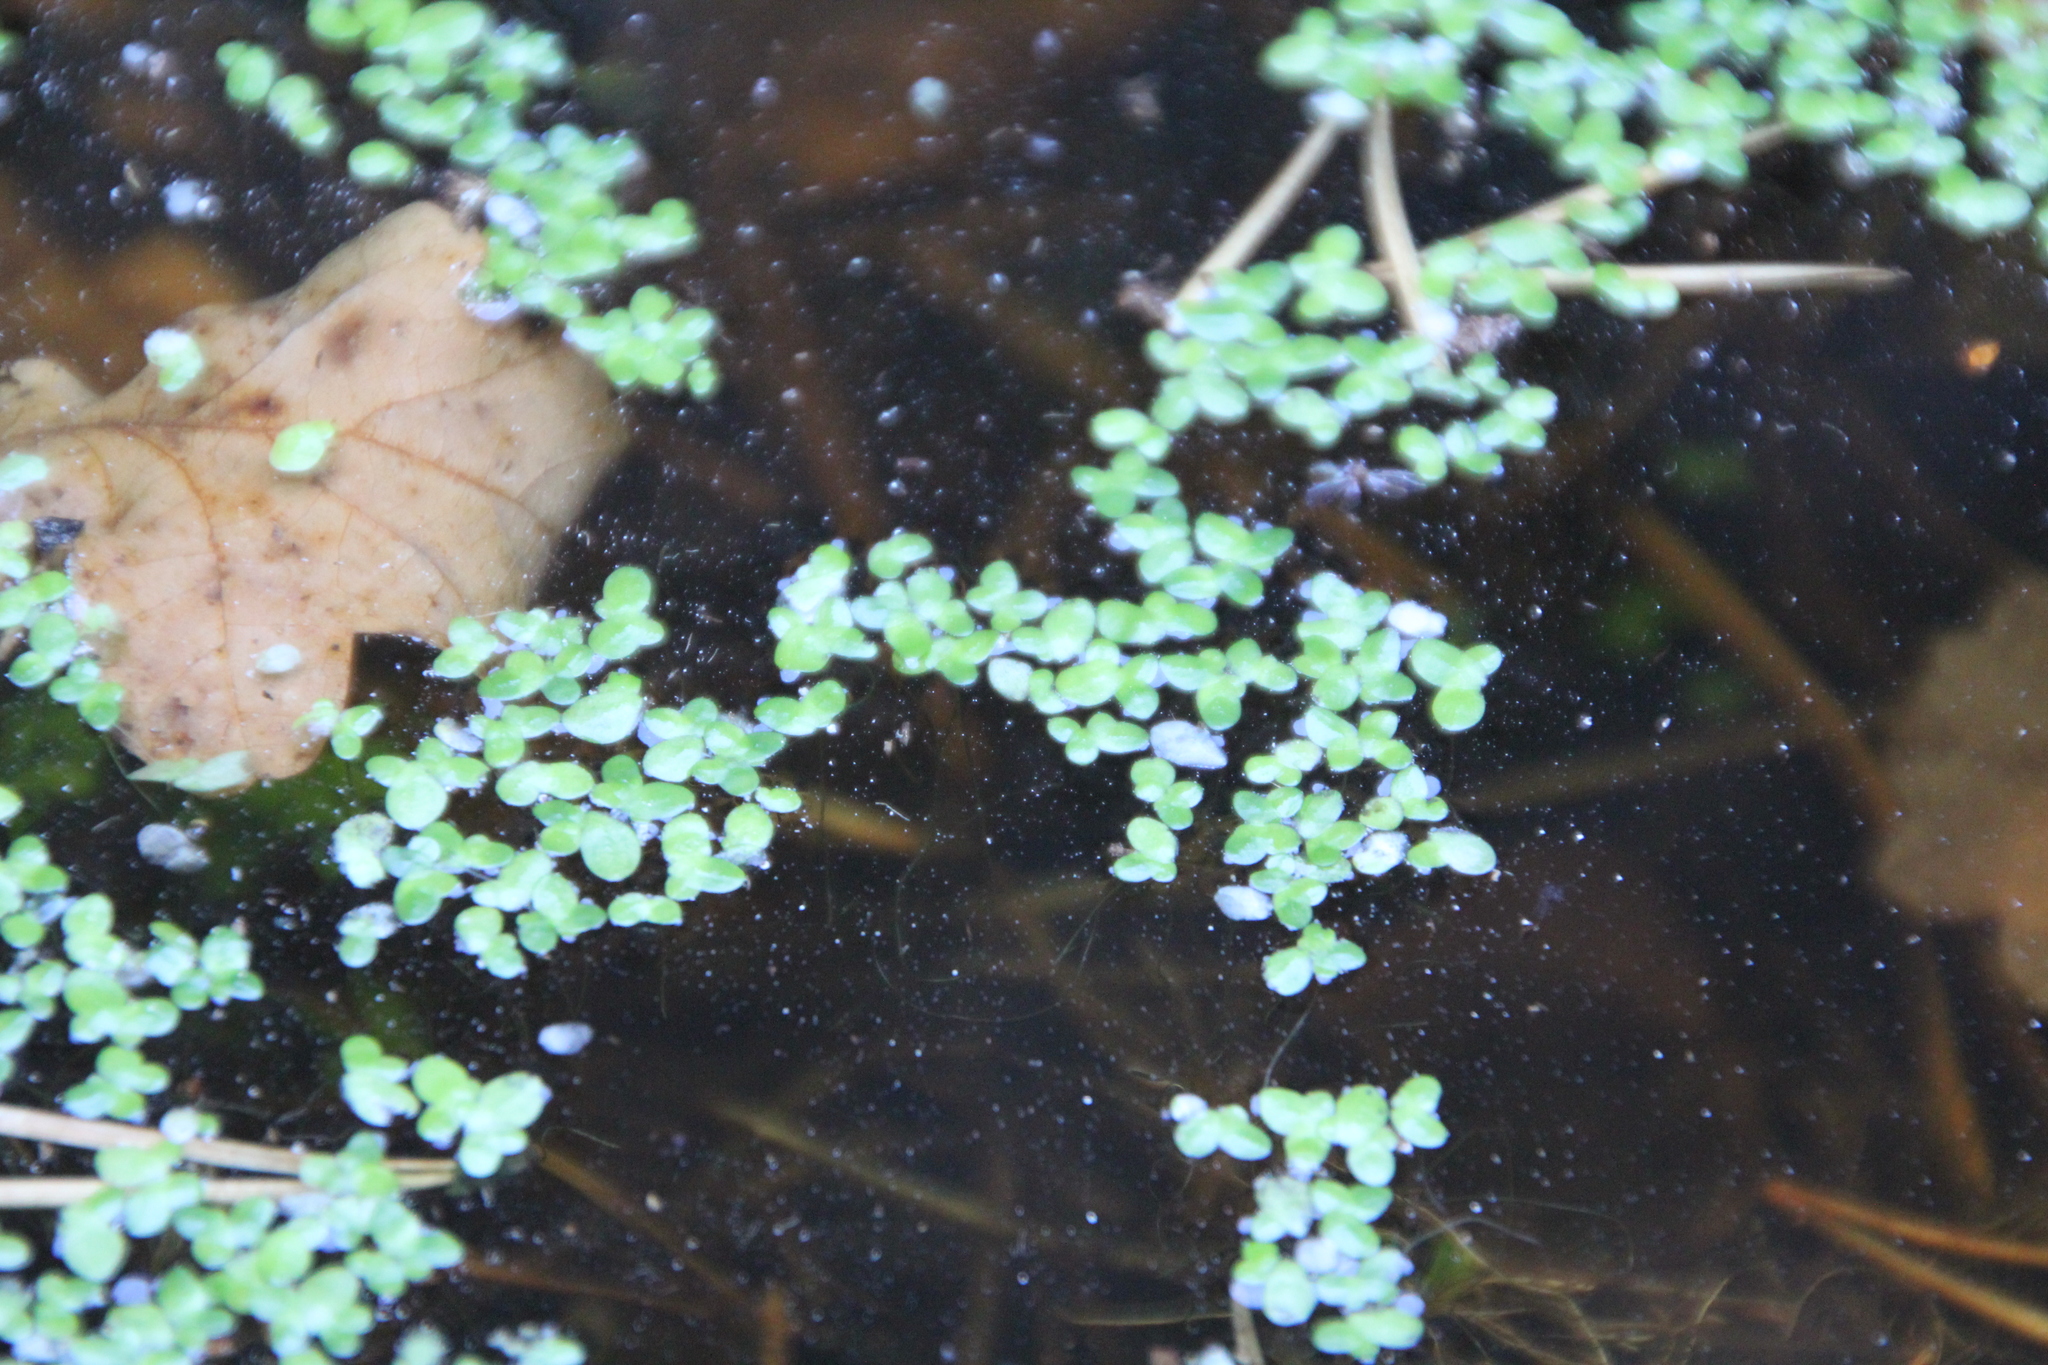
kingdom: Plantae
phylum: Tracheophyta
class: Liliopsida
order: Alismatales
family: Araceae
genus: Lemna
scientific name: Lemna minor
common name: Common duckweed
